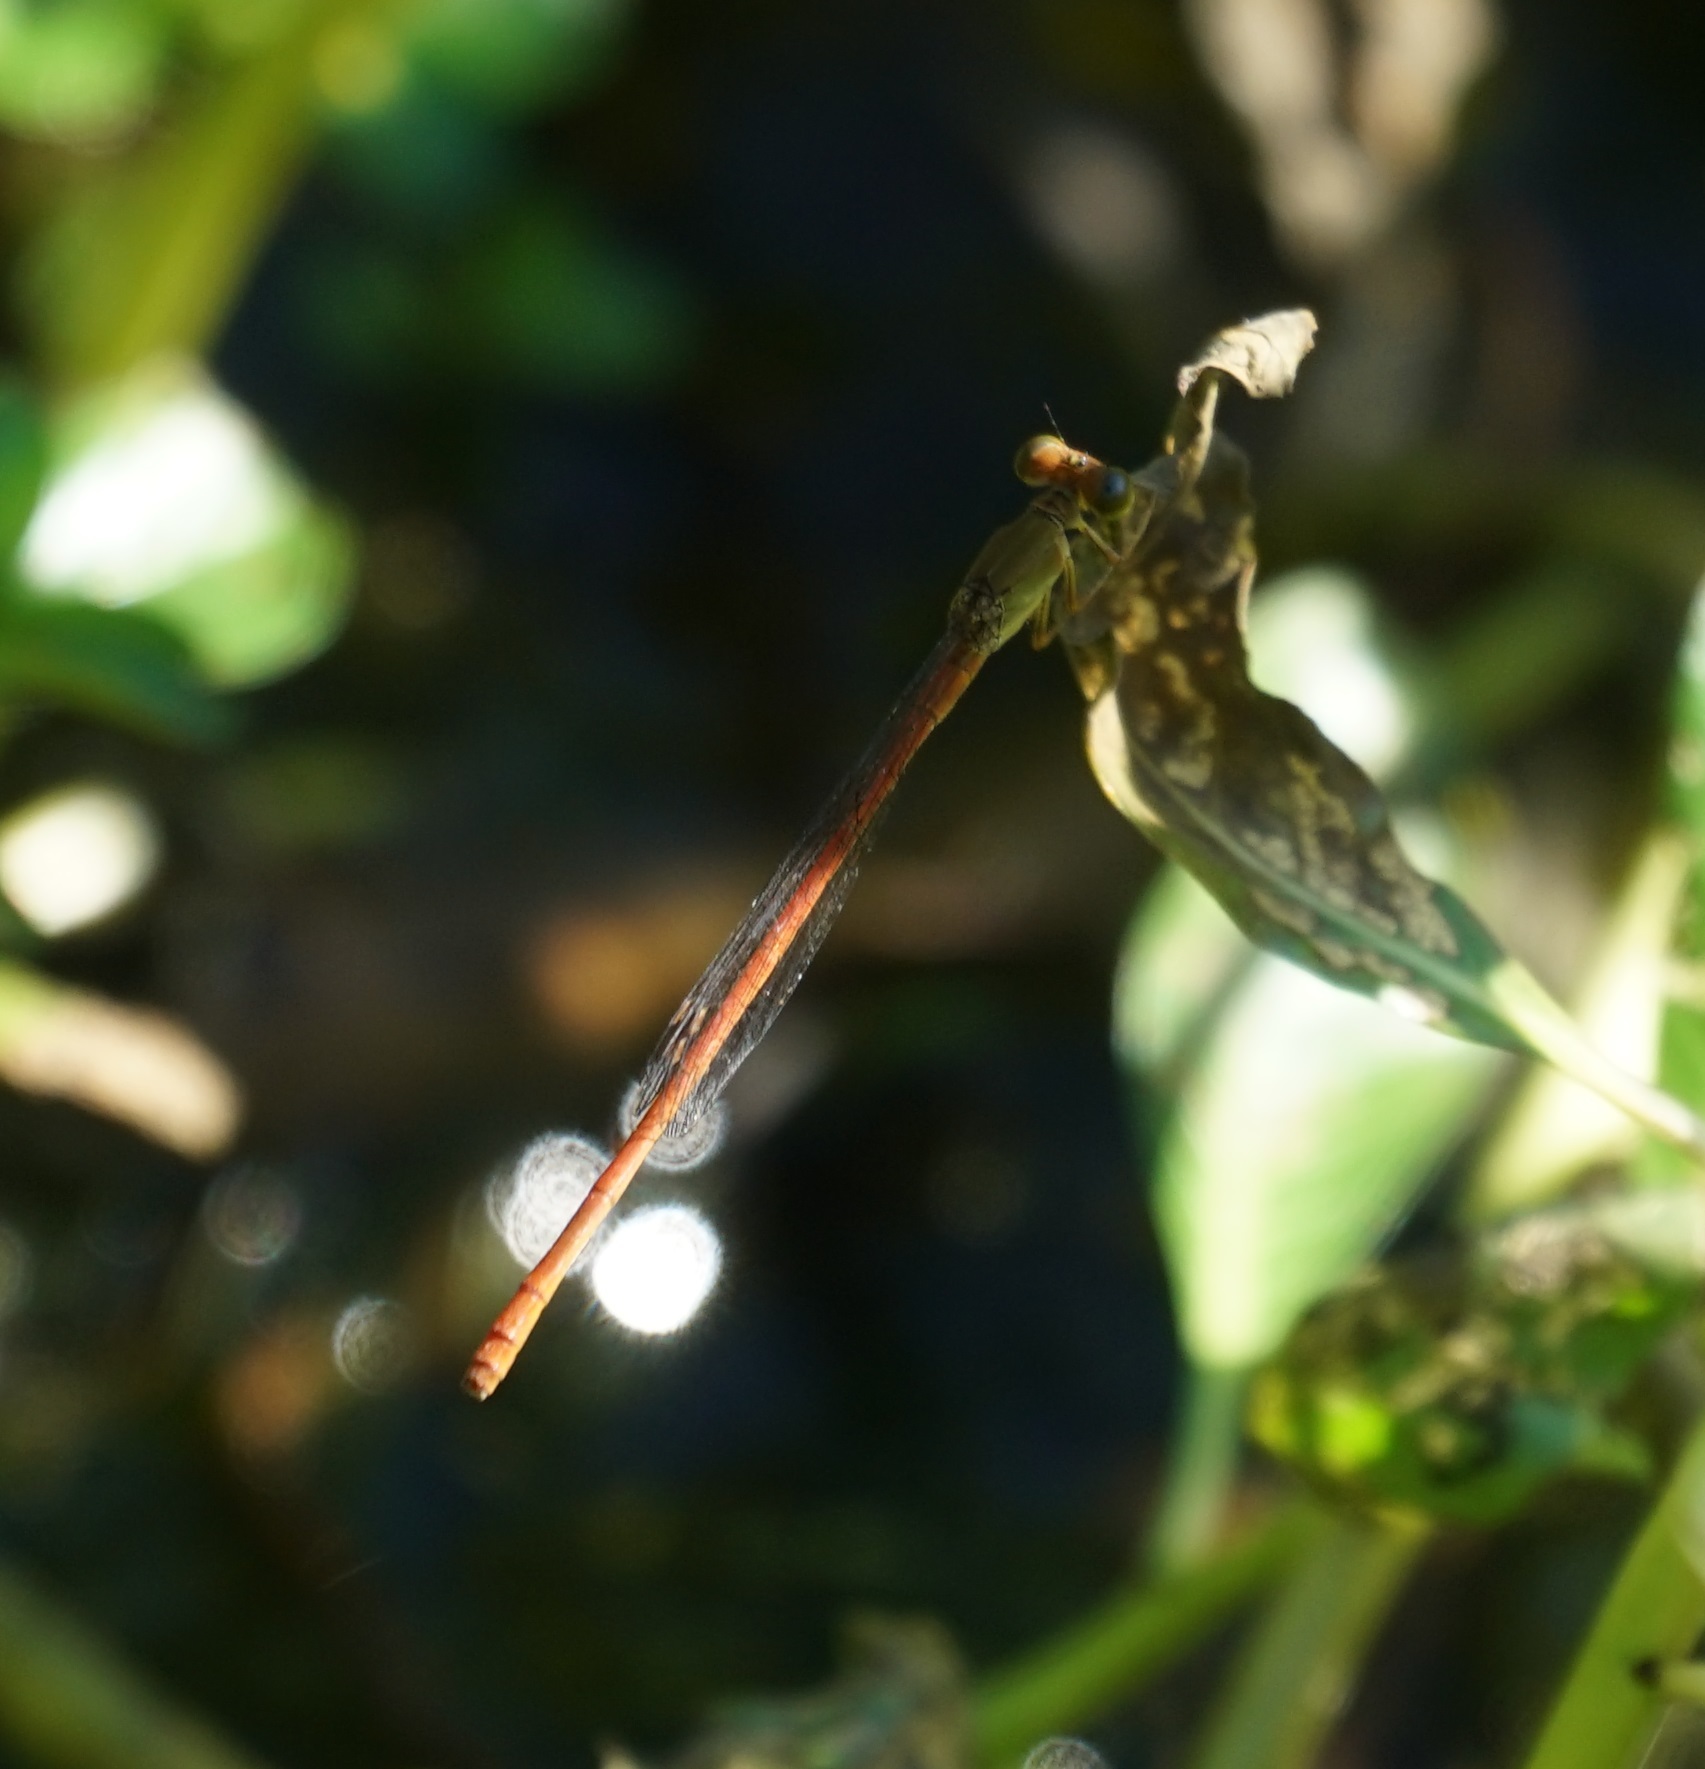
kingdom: Animalia
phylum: Arthropoda
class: Insecta
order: Odonata
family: Coenagrionidae
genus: Ceriagrion
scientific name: Ceriagrion aeruginosum
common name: Redtail
